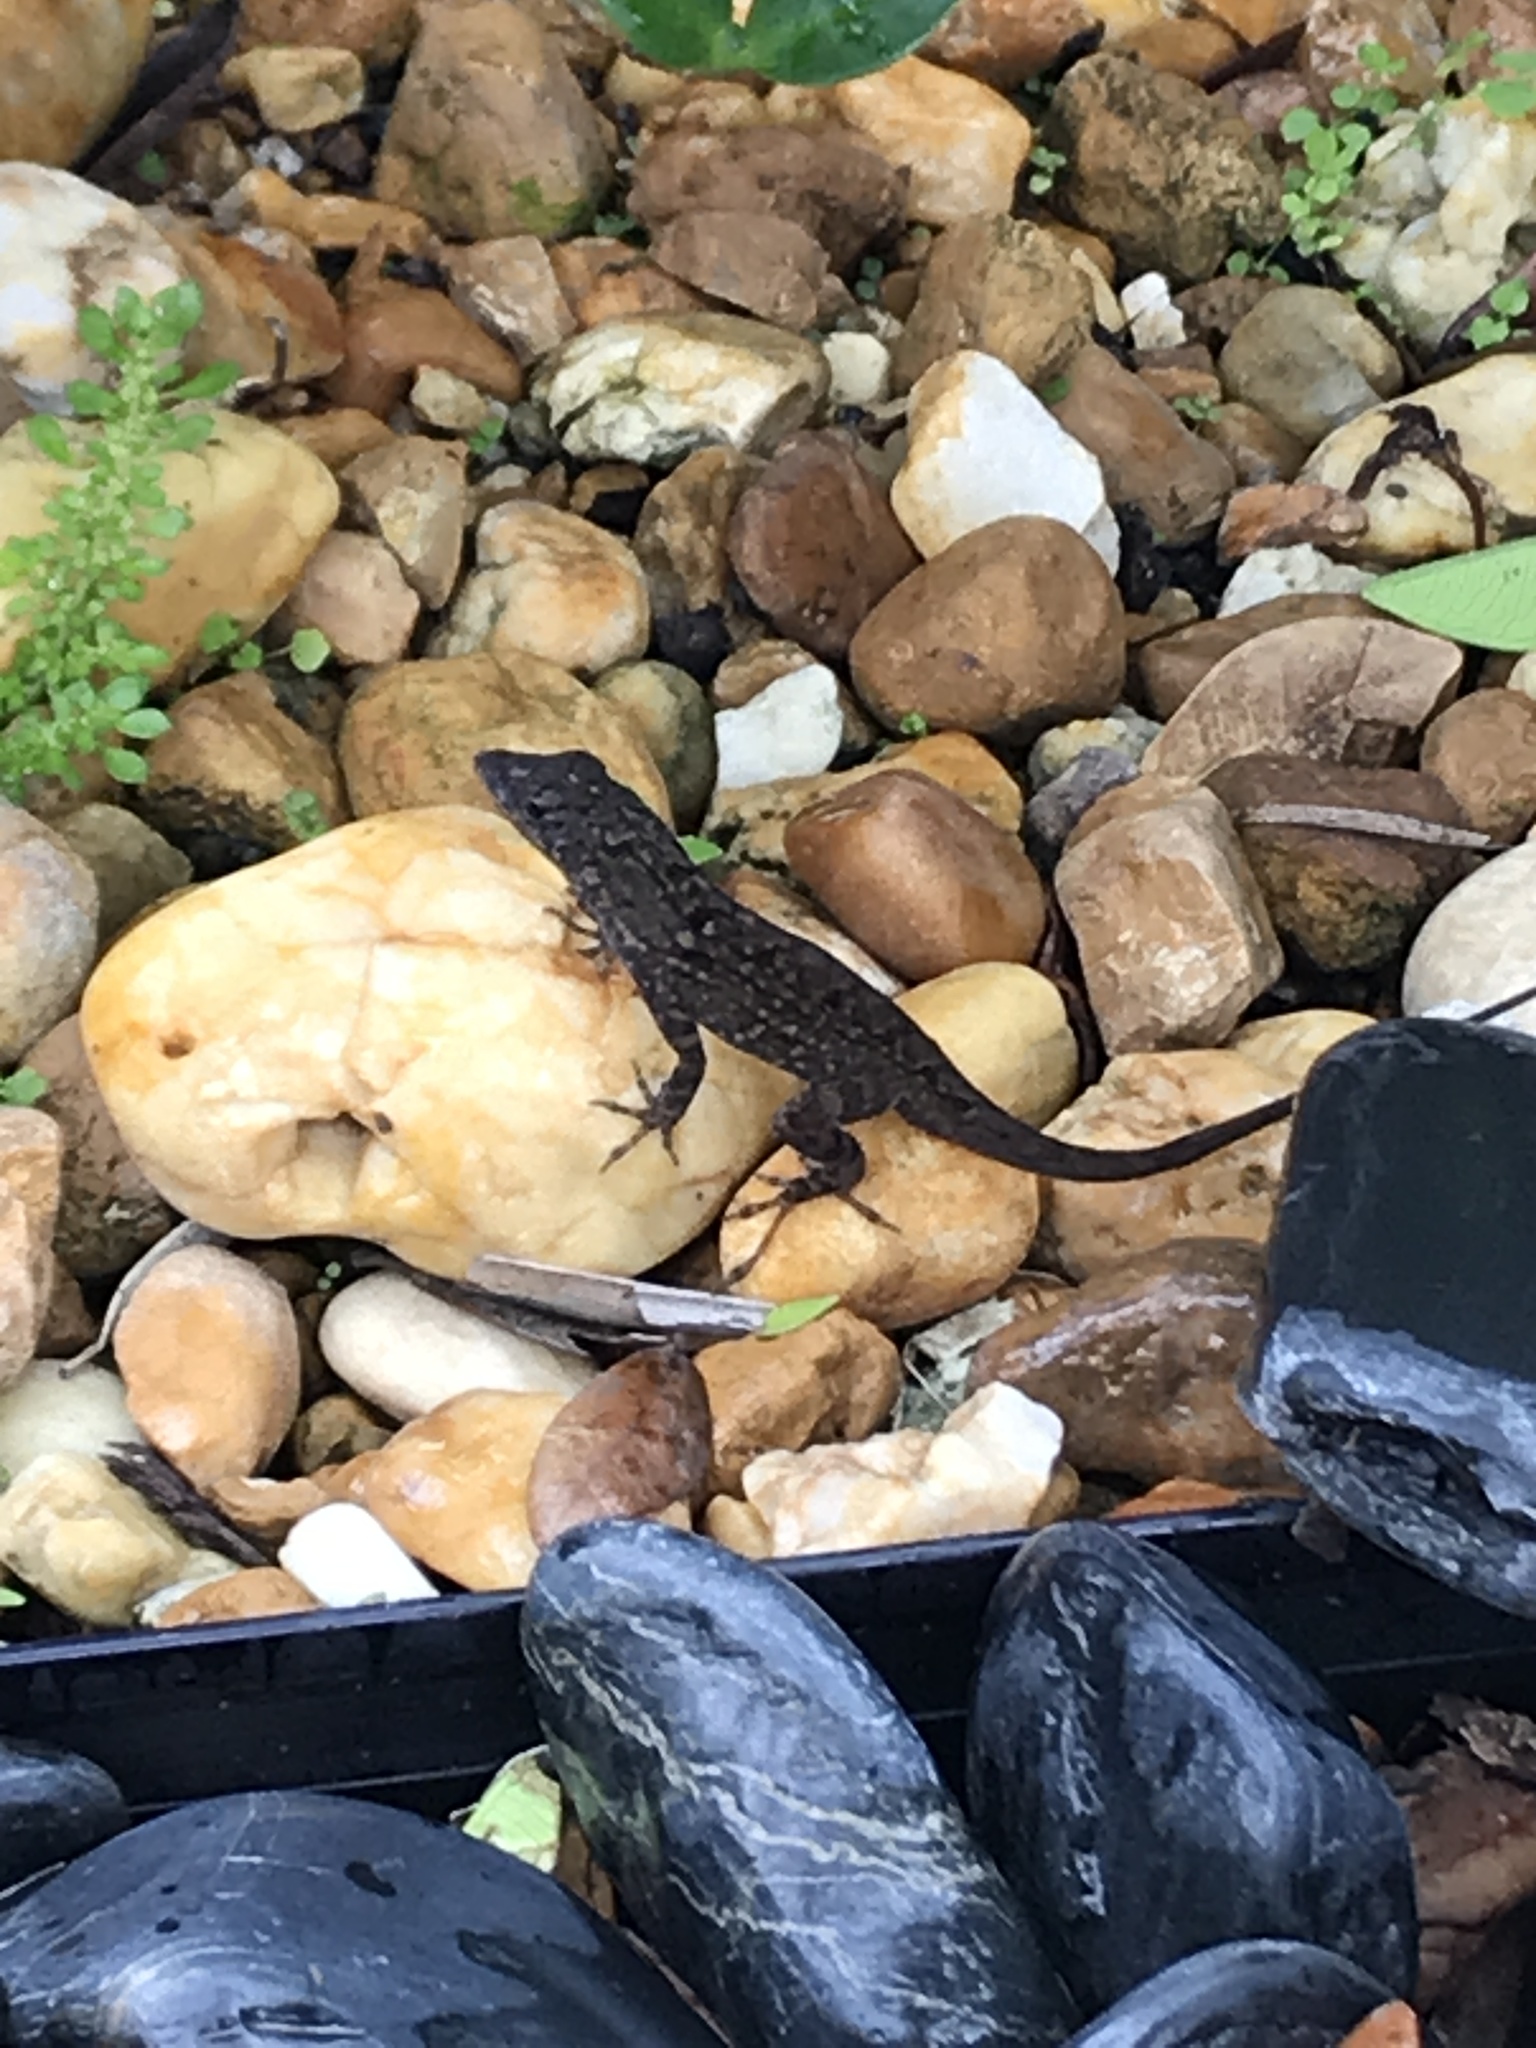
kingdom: Animalia
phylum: Chordata
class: Squamata
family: Dactyloidae
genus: Anolis
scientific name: Anolis sagrei
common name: Brown anole
